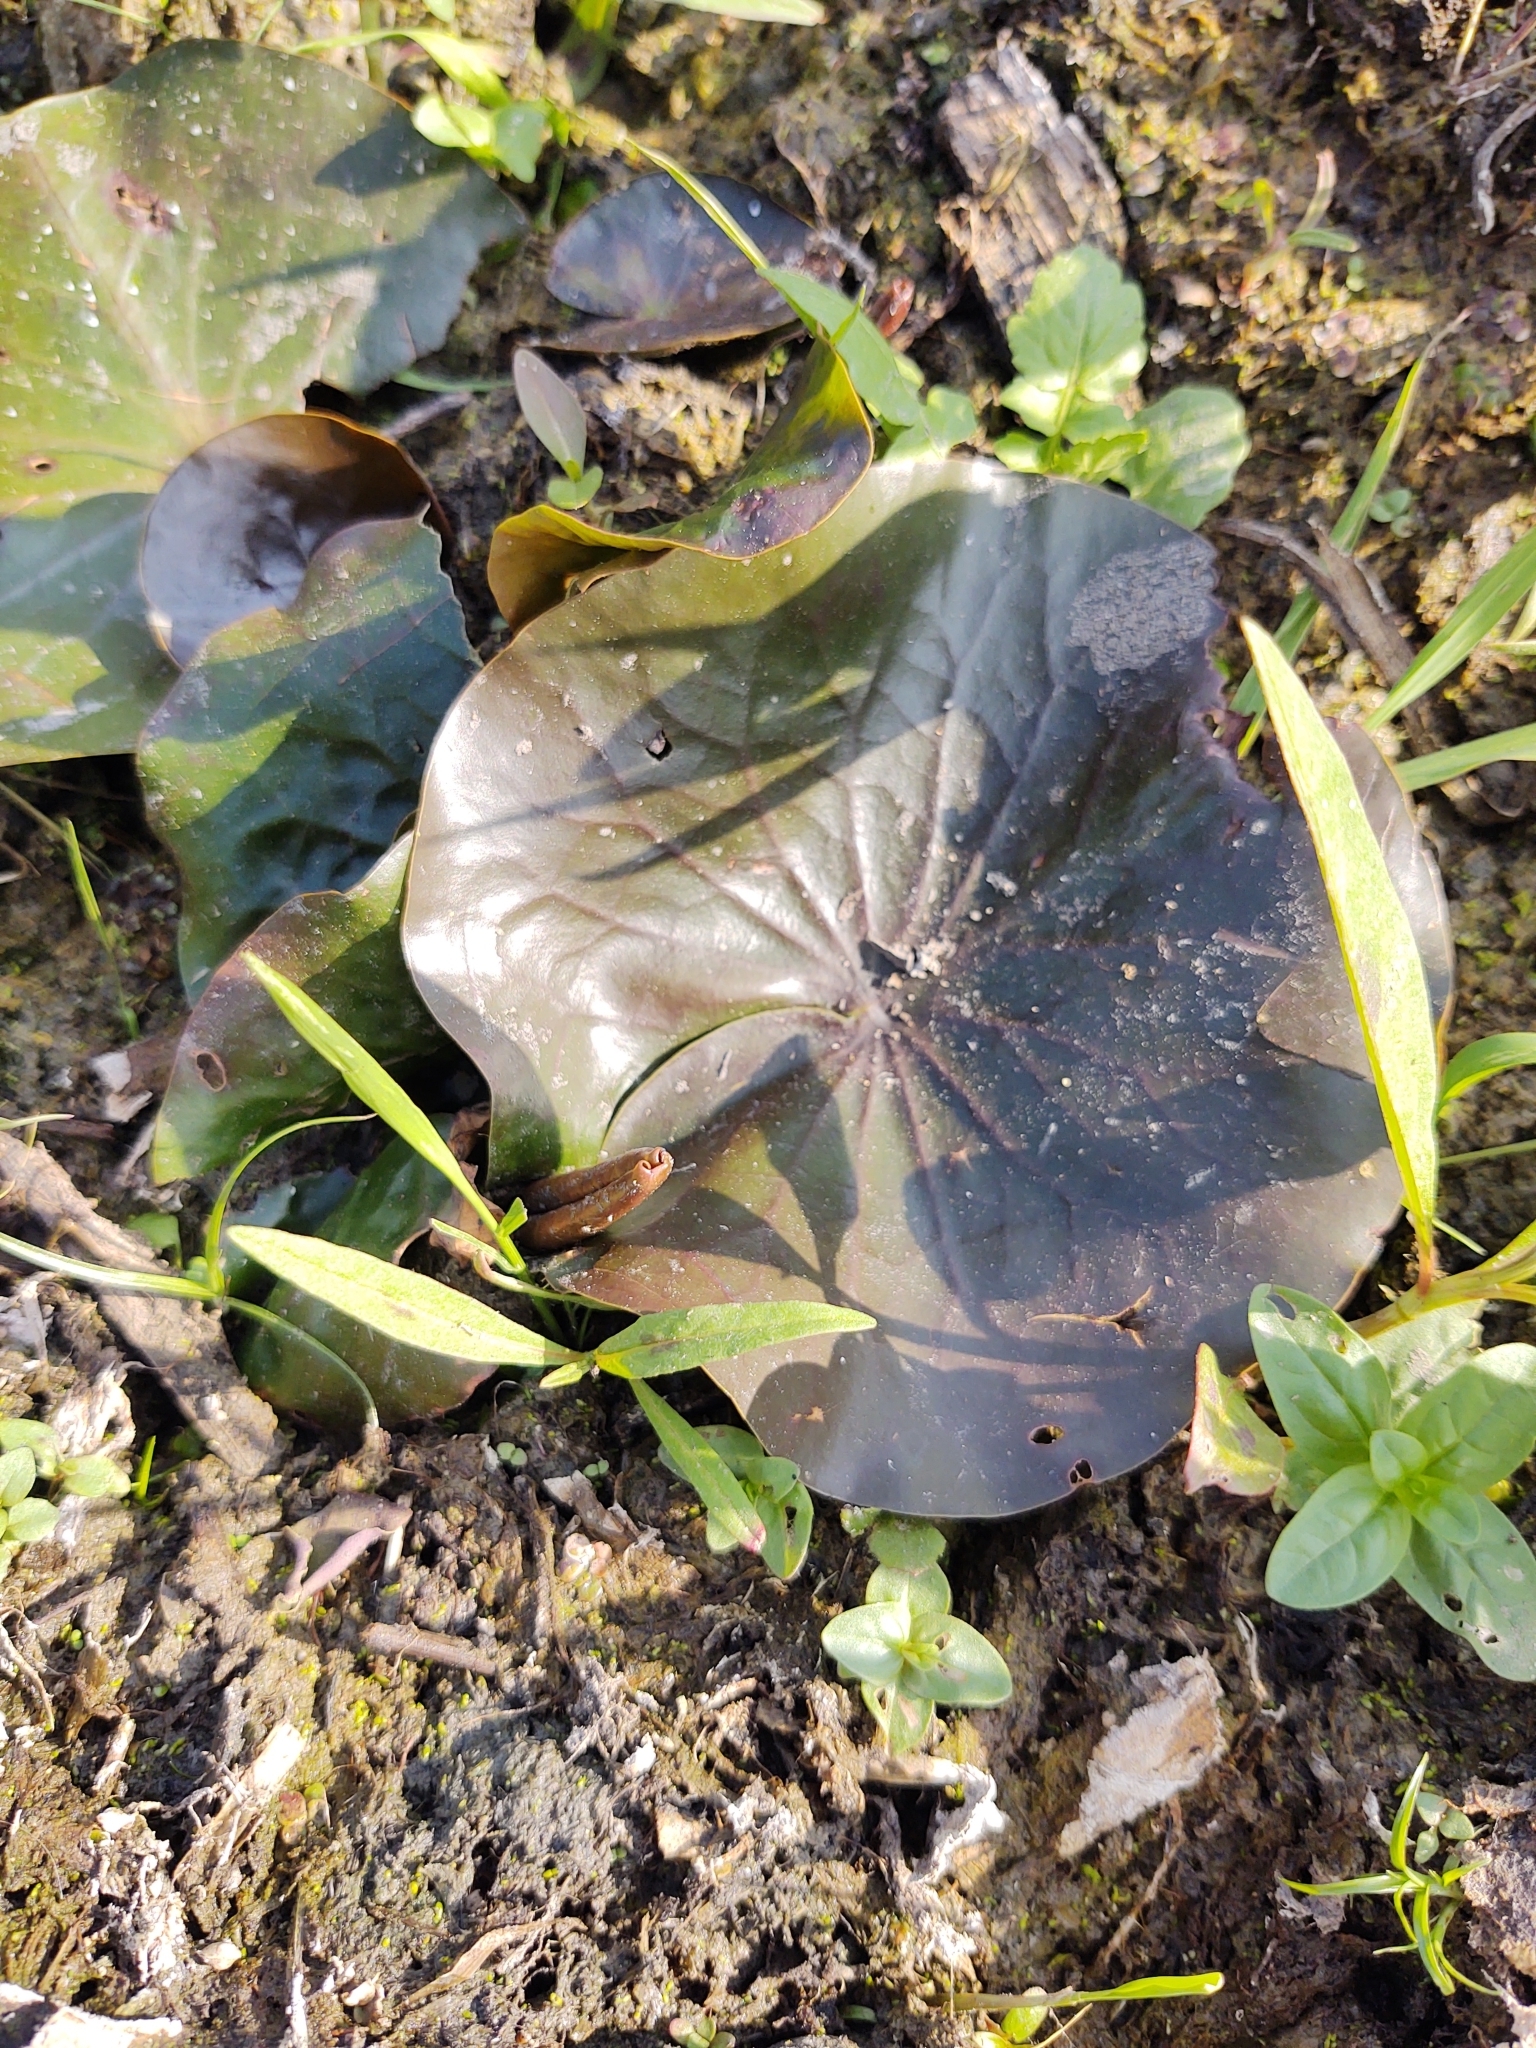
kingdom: Plantae
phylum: Tracheophyta
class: Magnoliopsida
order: Nymphaeales
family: Nymphaeaceae
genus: Nymphaea
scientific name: Nymphaea odorata
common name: Fragrant water-lily
